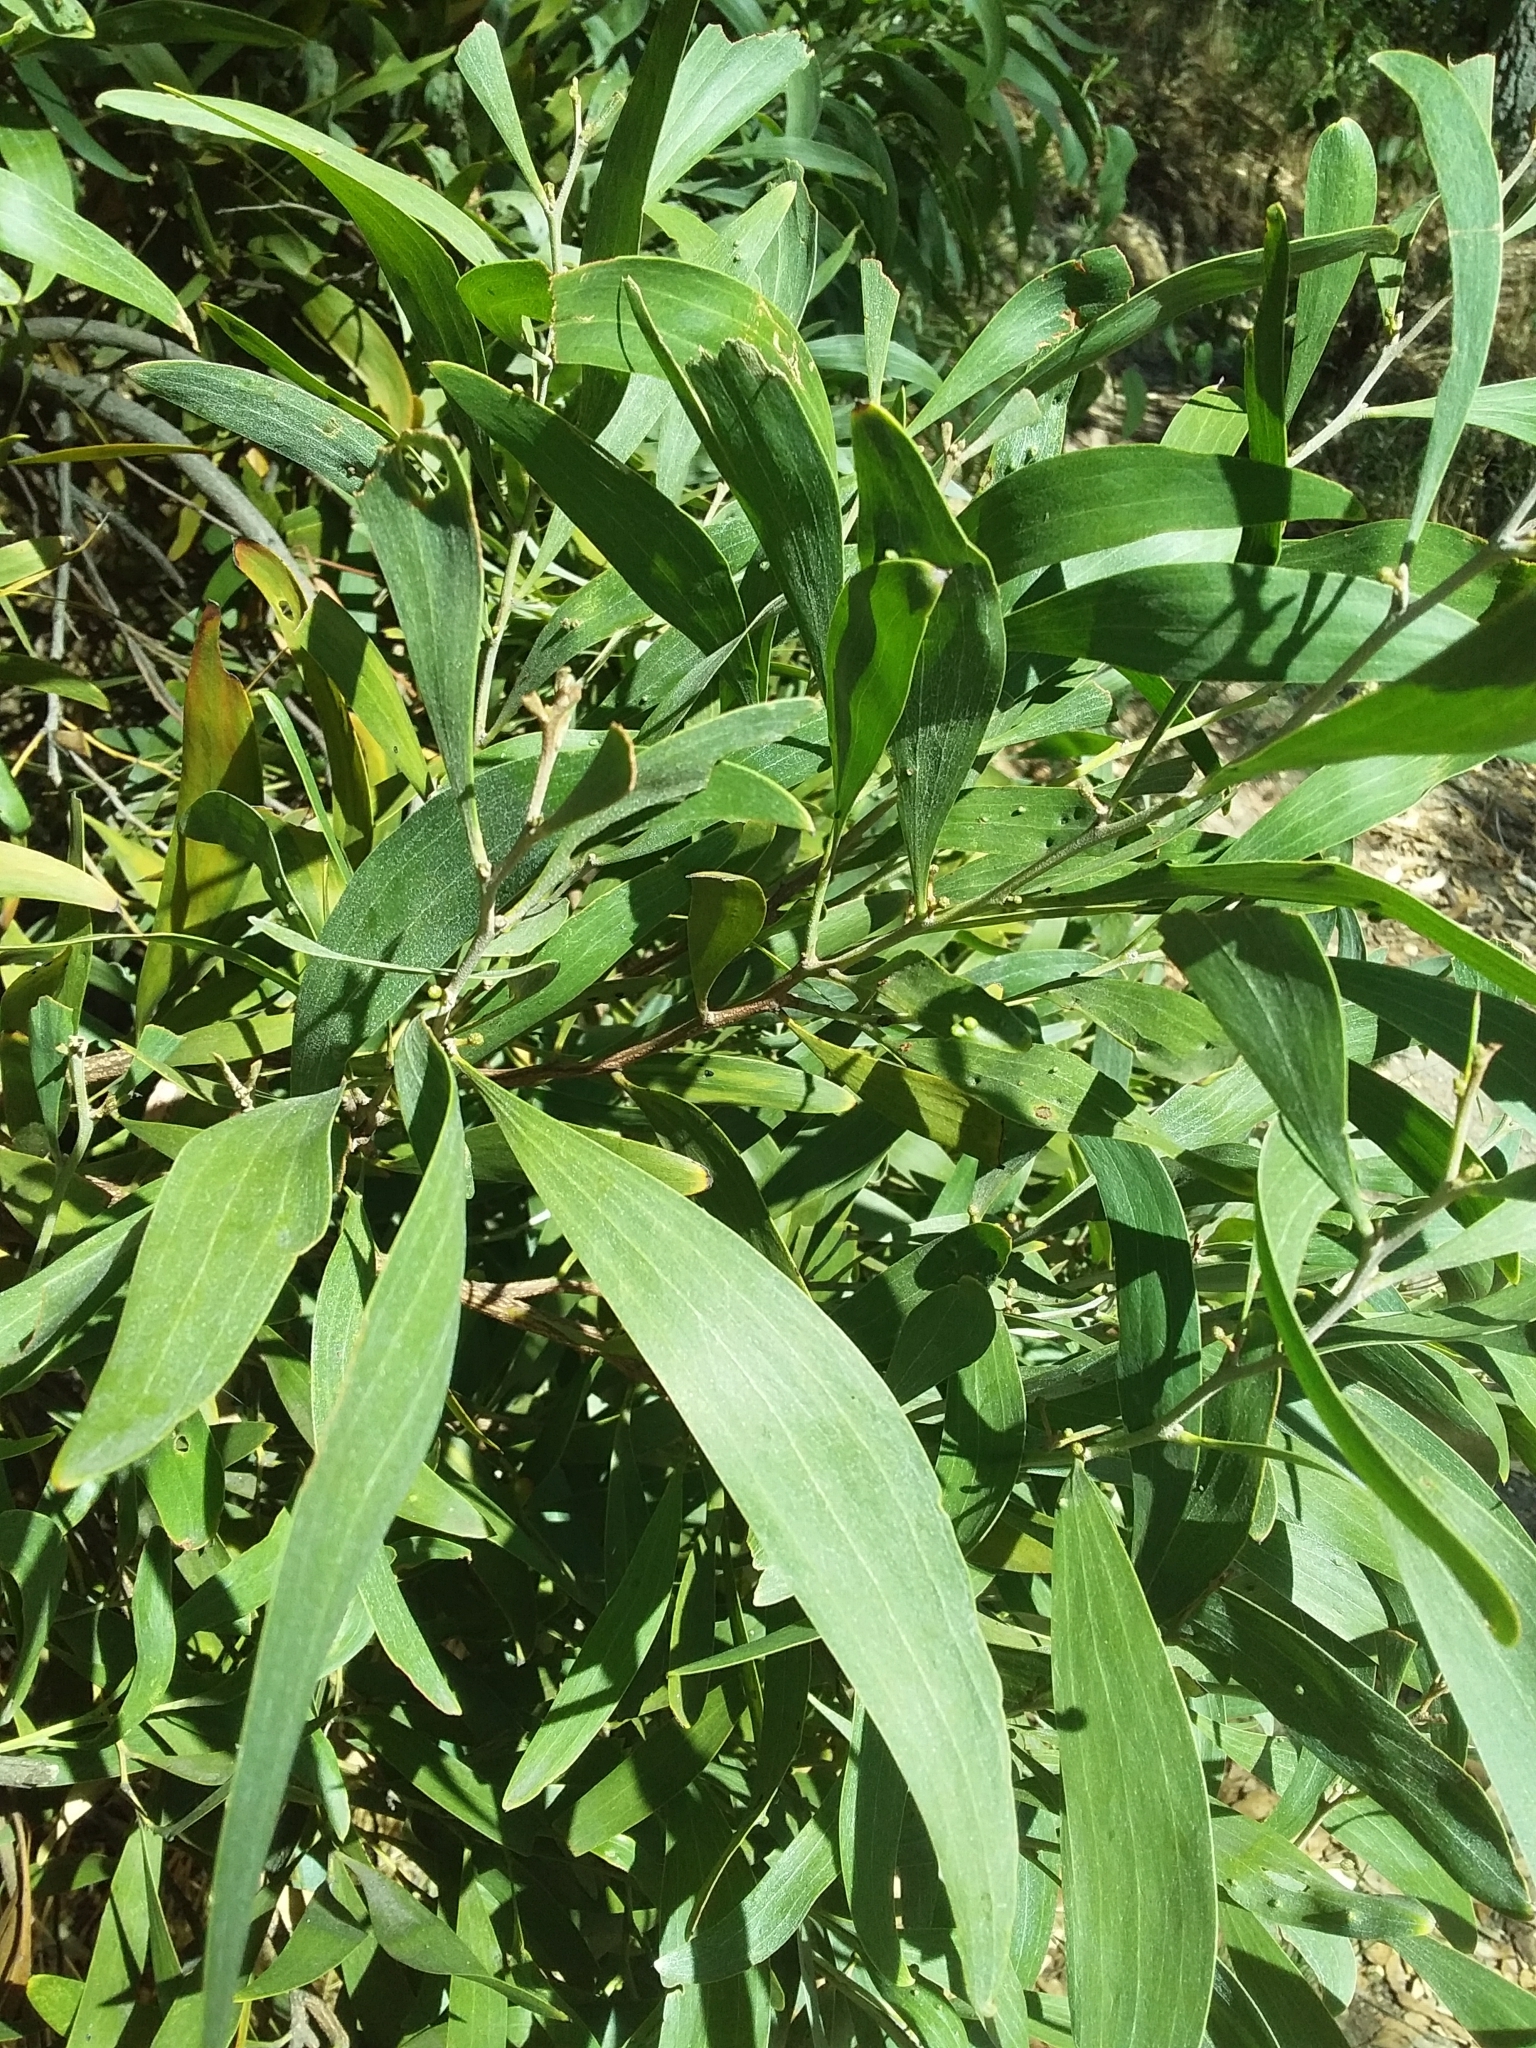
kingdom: Plantae
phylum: Tracheophyta
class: Magnoliopsida
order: Fabales
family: Fabaceae
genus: Acacia
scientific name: Acacia melanoxylon
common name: Blackwood
